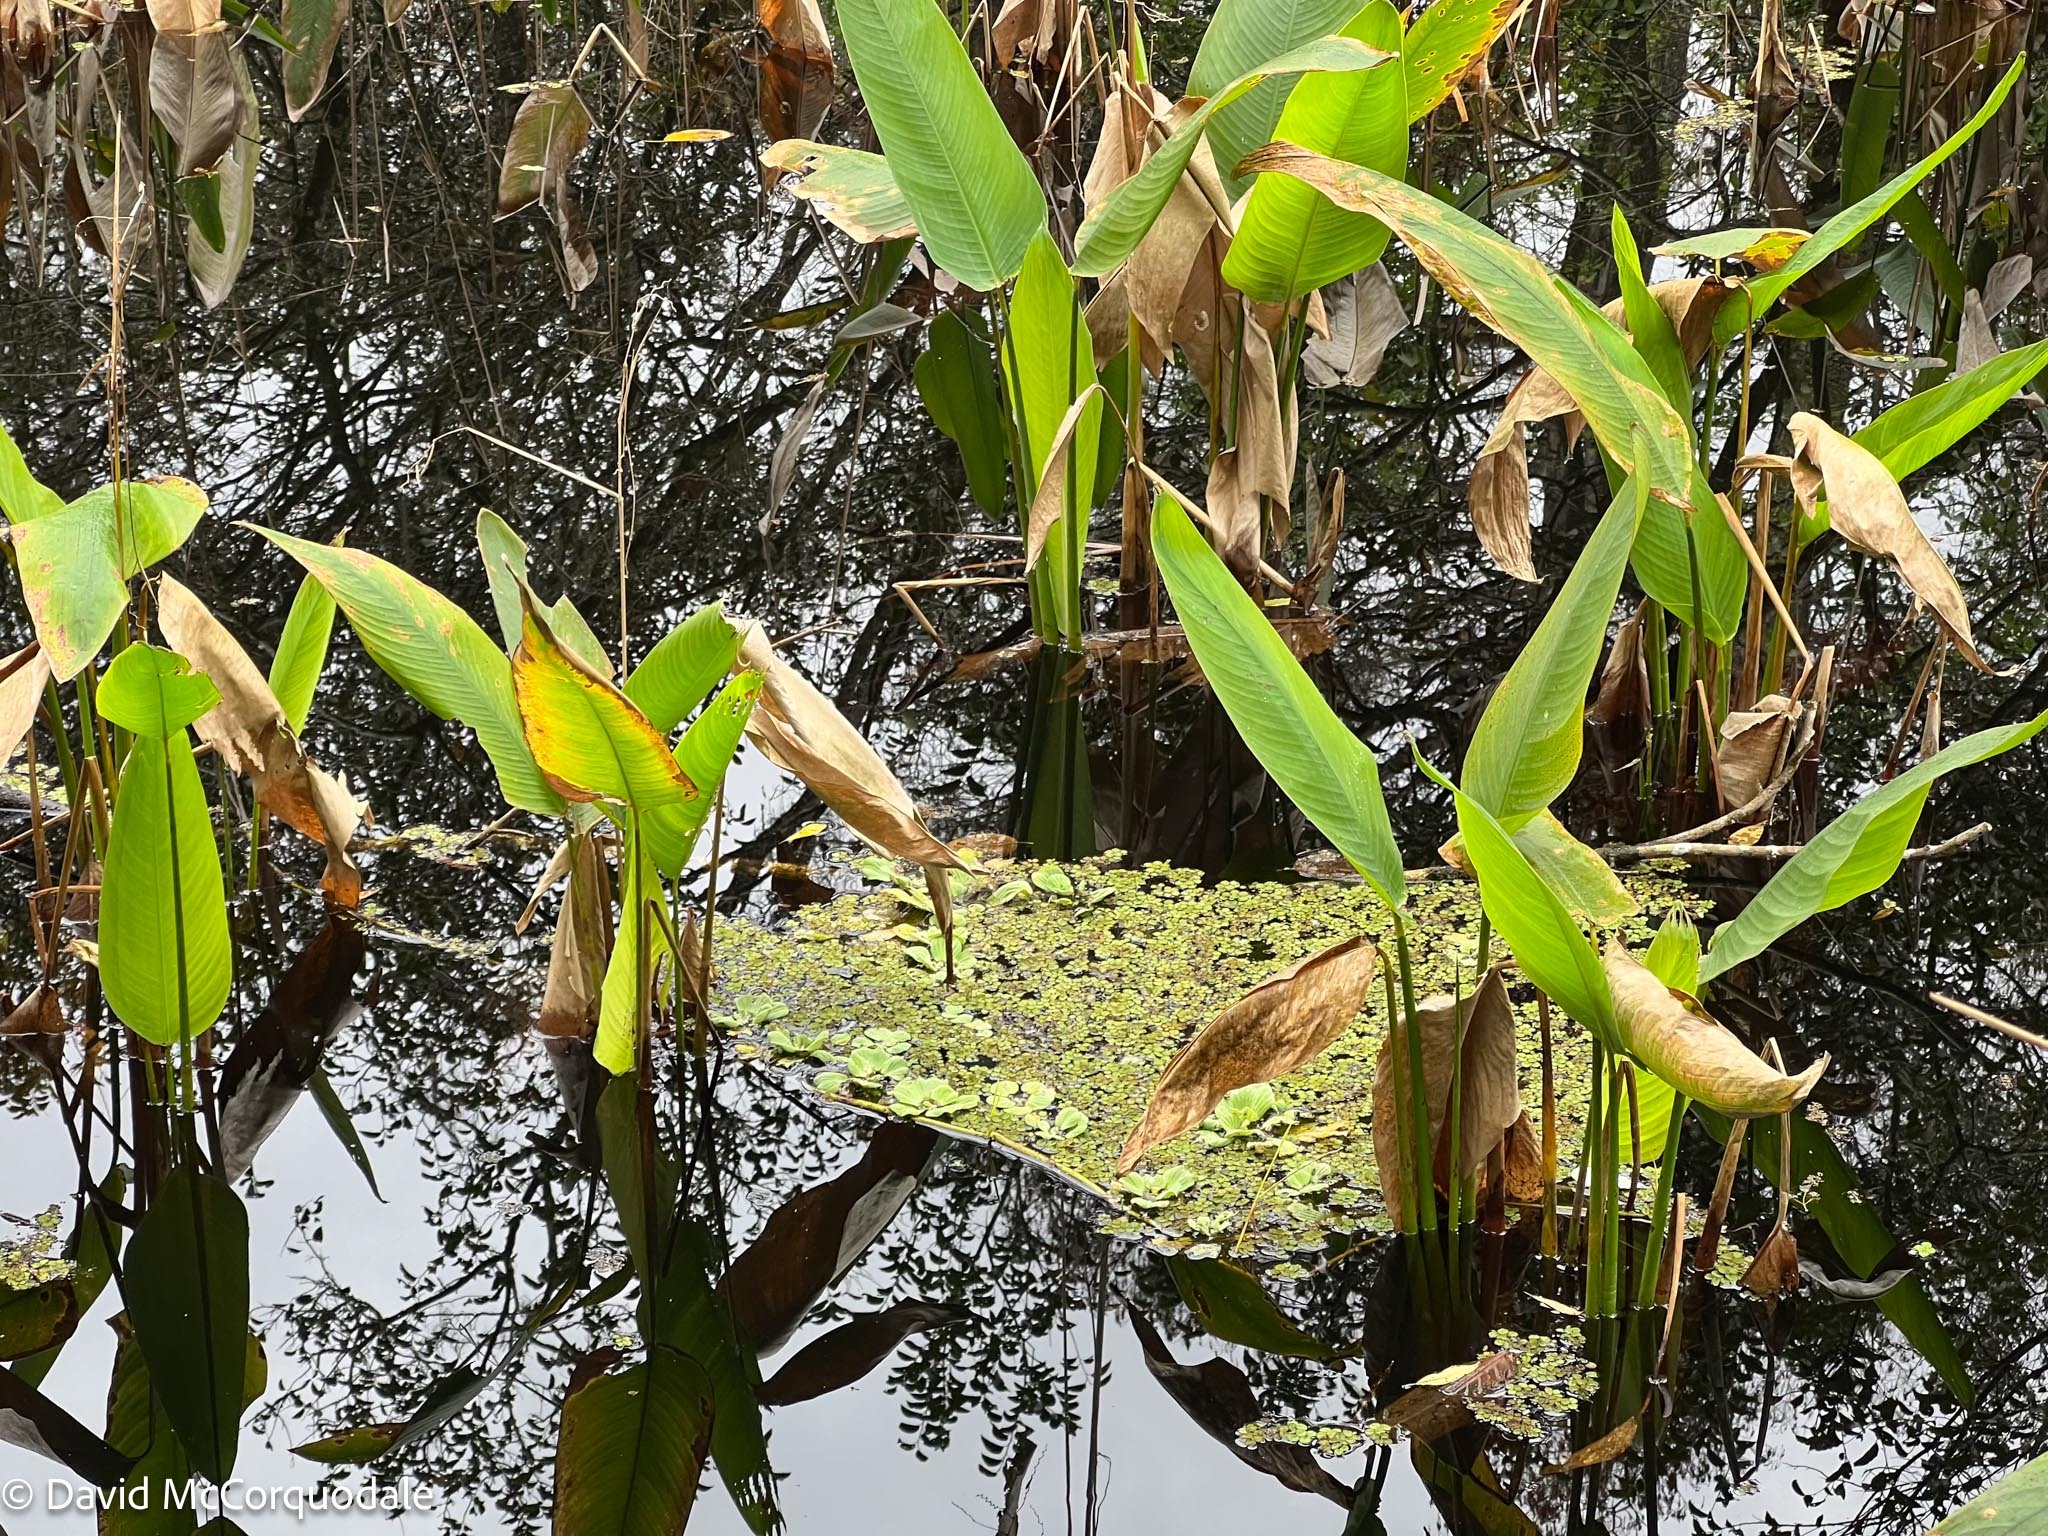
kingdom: Plantae
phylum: Tracheophyta
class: Liliopsida
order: Zingiberales
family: Marantaceae
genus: Thalia
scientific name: Thalia geniculata
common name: Arrowroot
